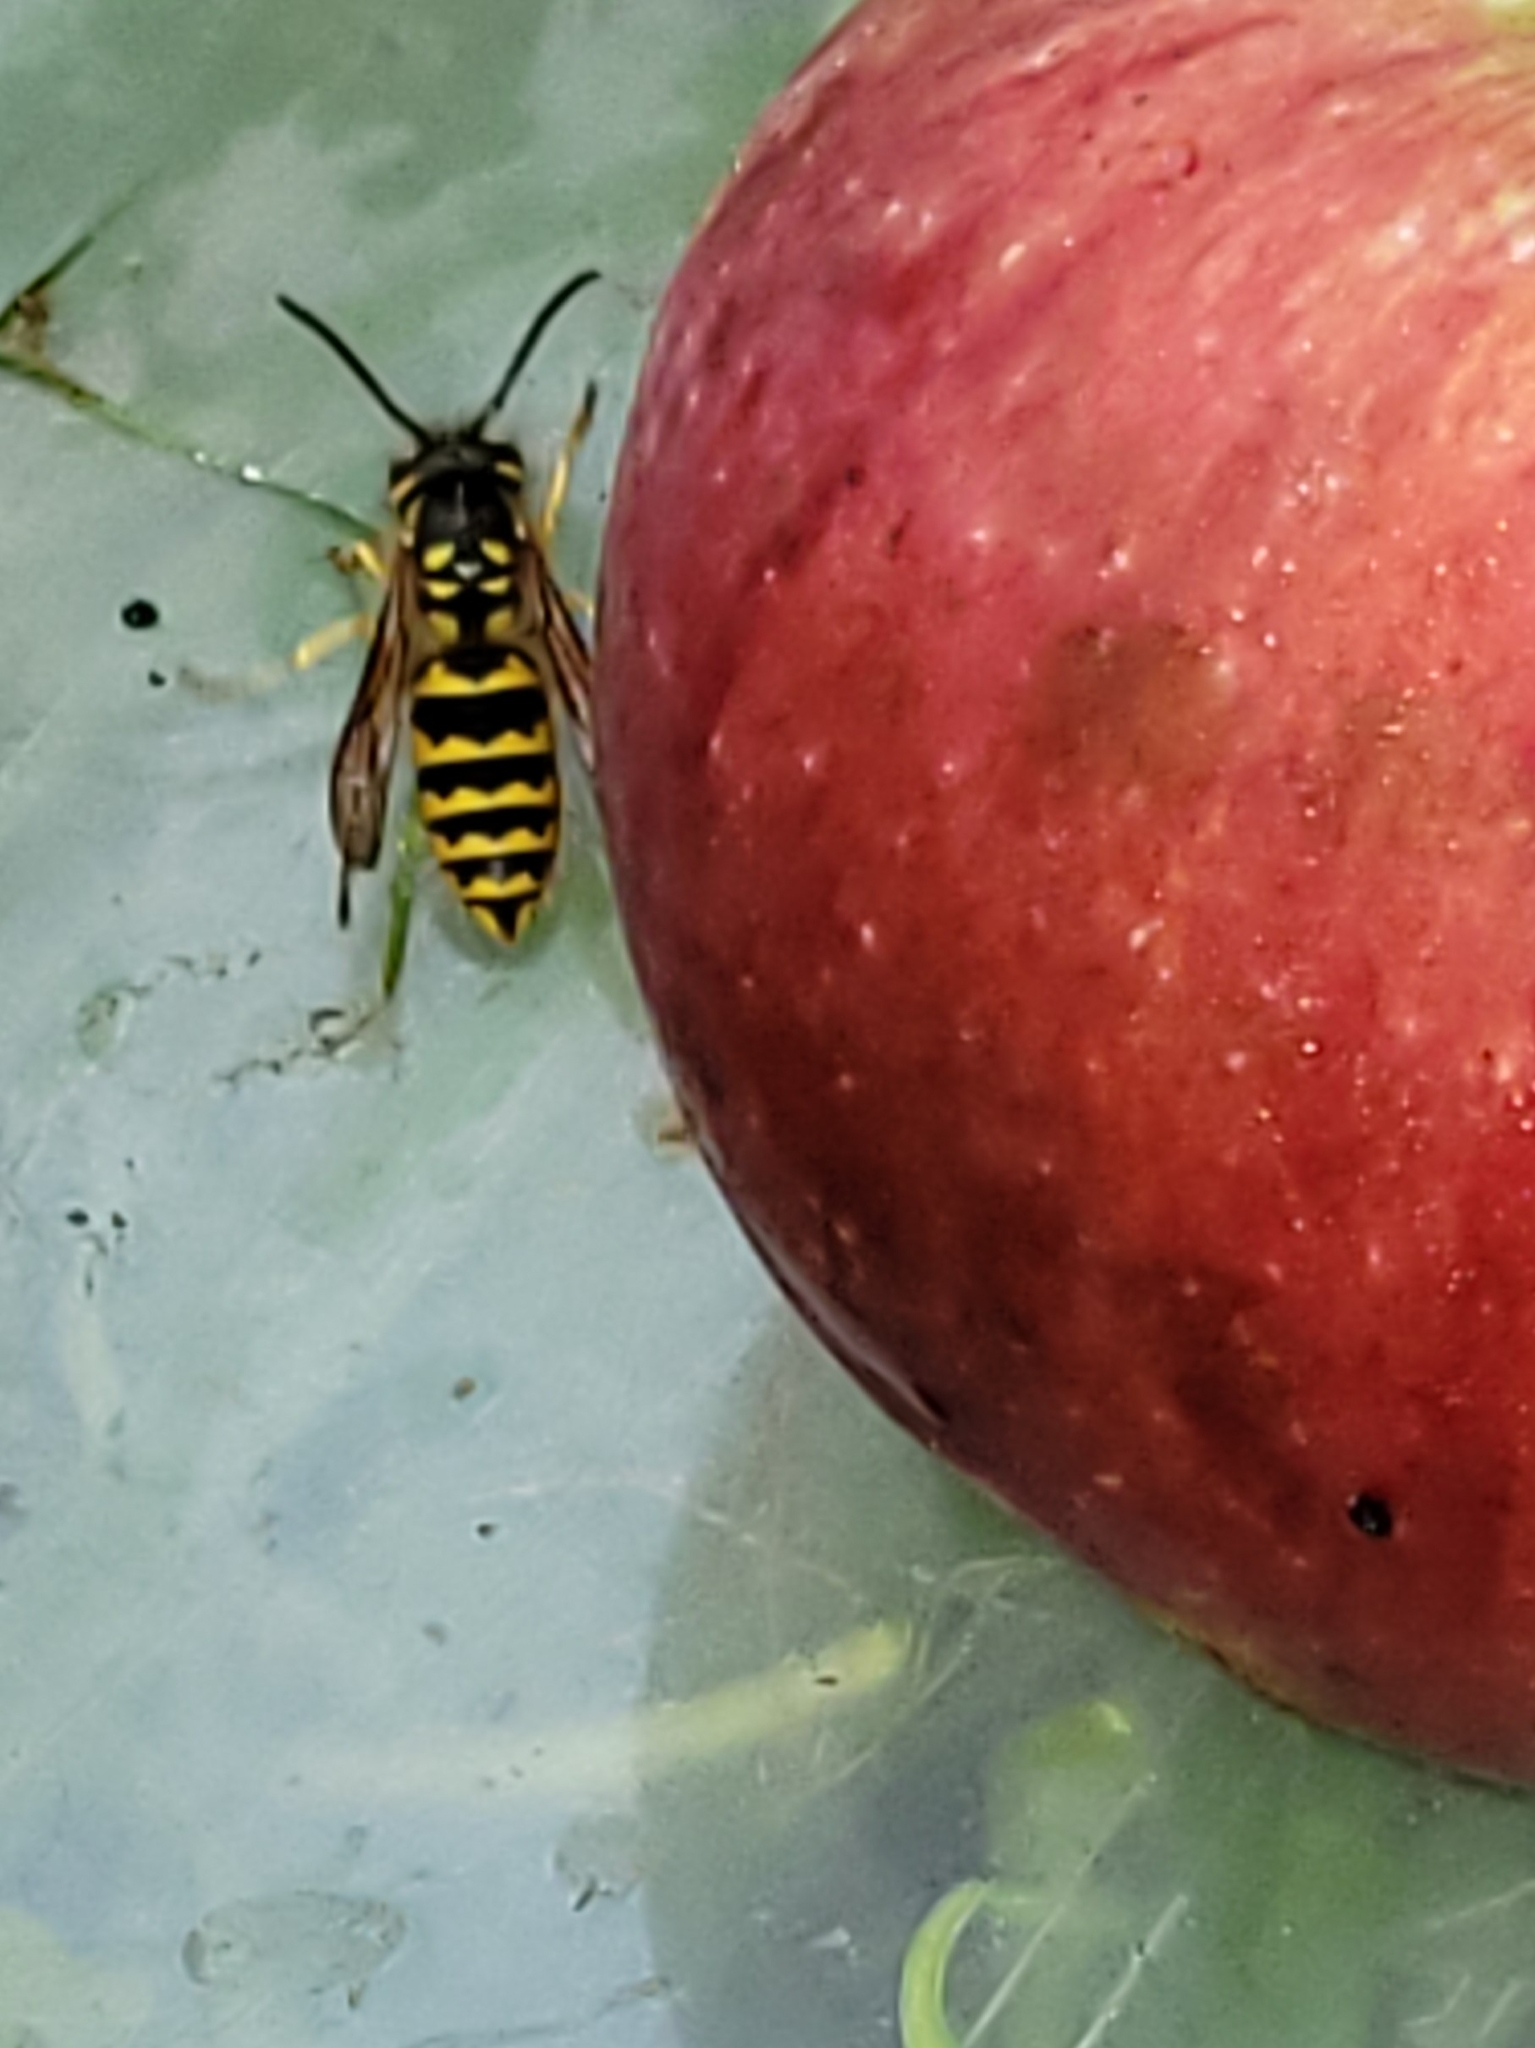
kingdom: Animalia
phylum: Arthropoda
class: Insecta
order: Hymenoptera
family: Vespidae
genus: Vespula
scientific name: Vespula flavopilosa
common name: Downy yellowjacket
